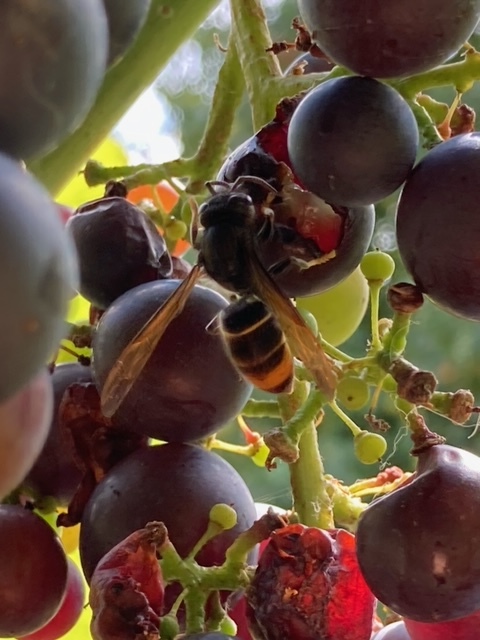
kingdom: Animalia
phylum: Arthropoda
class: Insecta
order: Hymenoptera
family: Vespidae
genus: Vespa
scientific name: Vespa velutina
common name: Asian hornet
